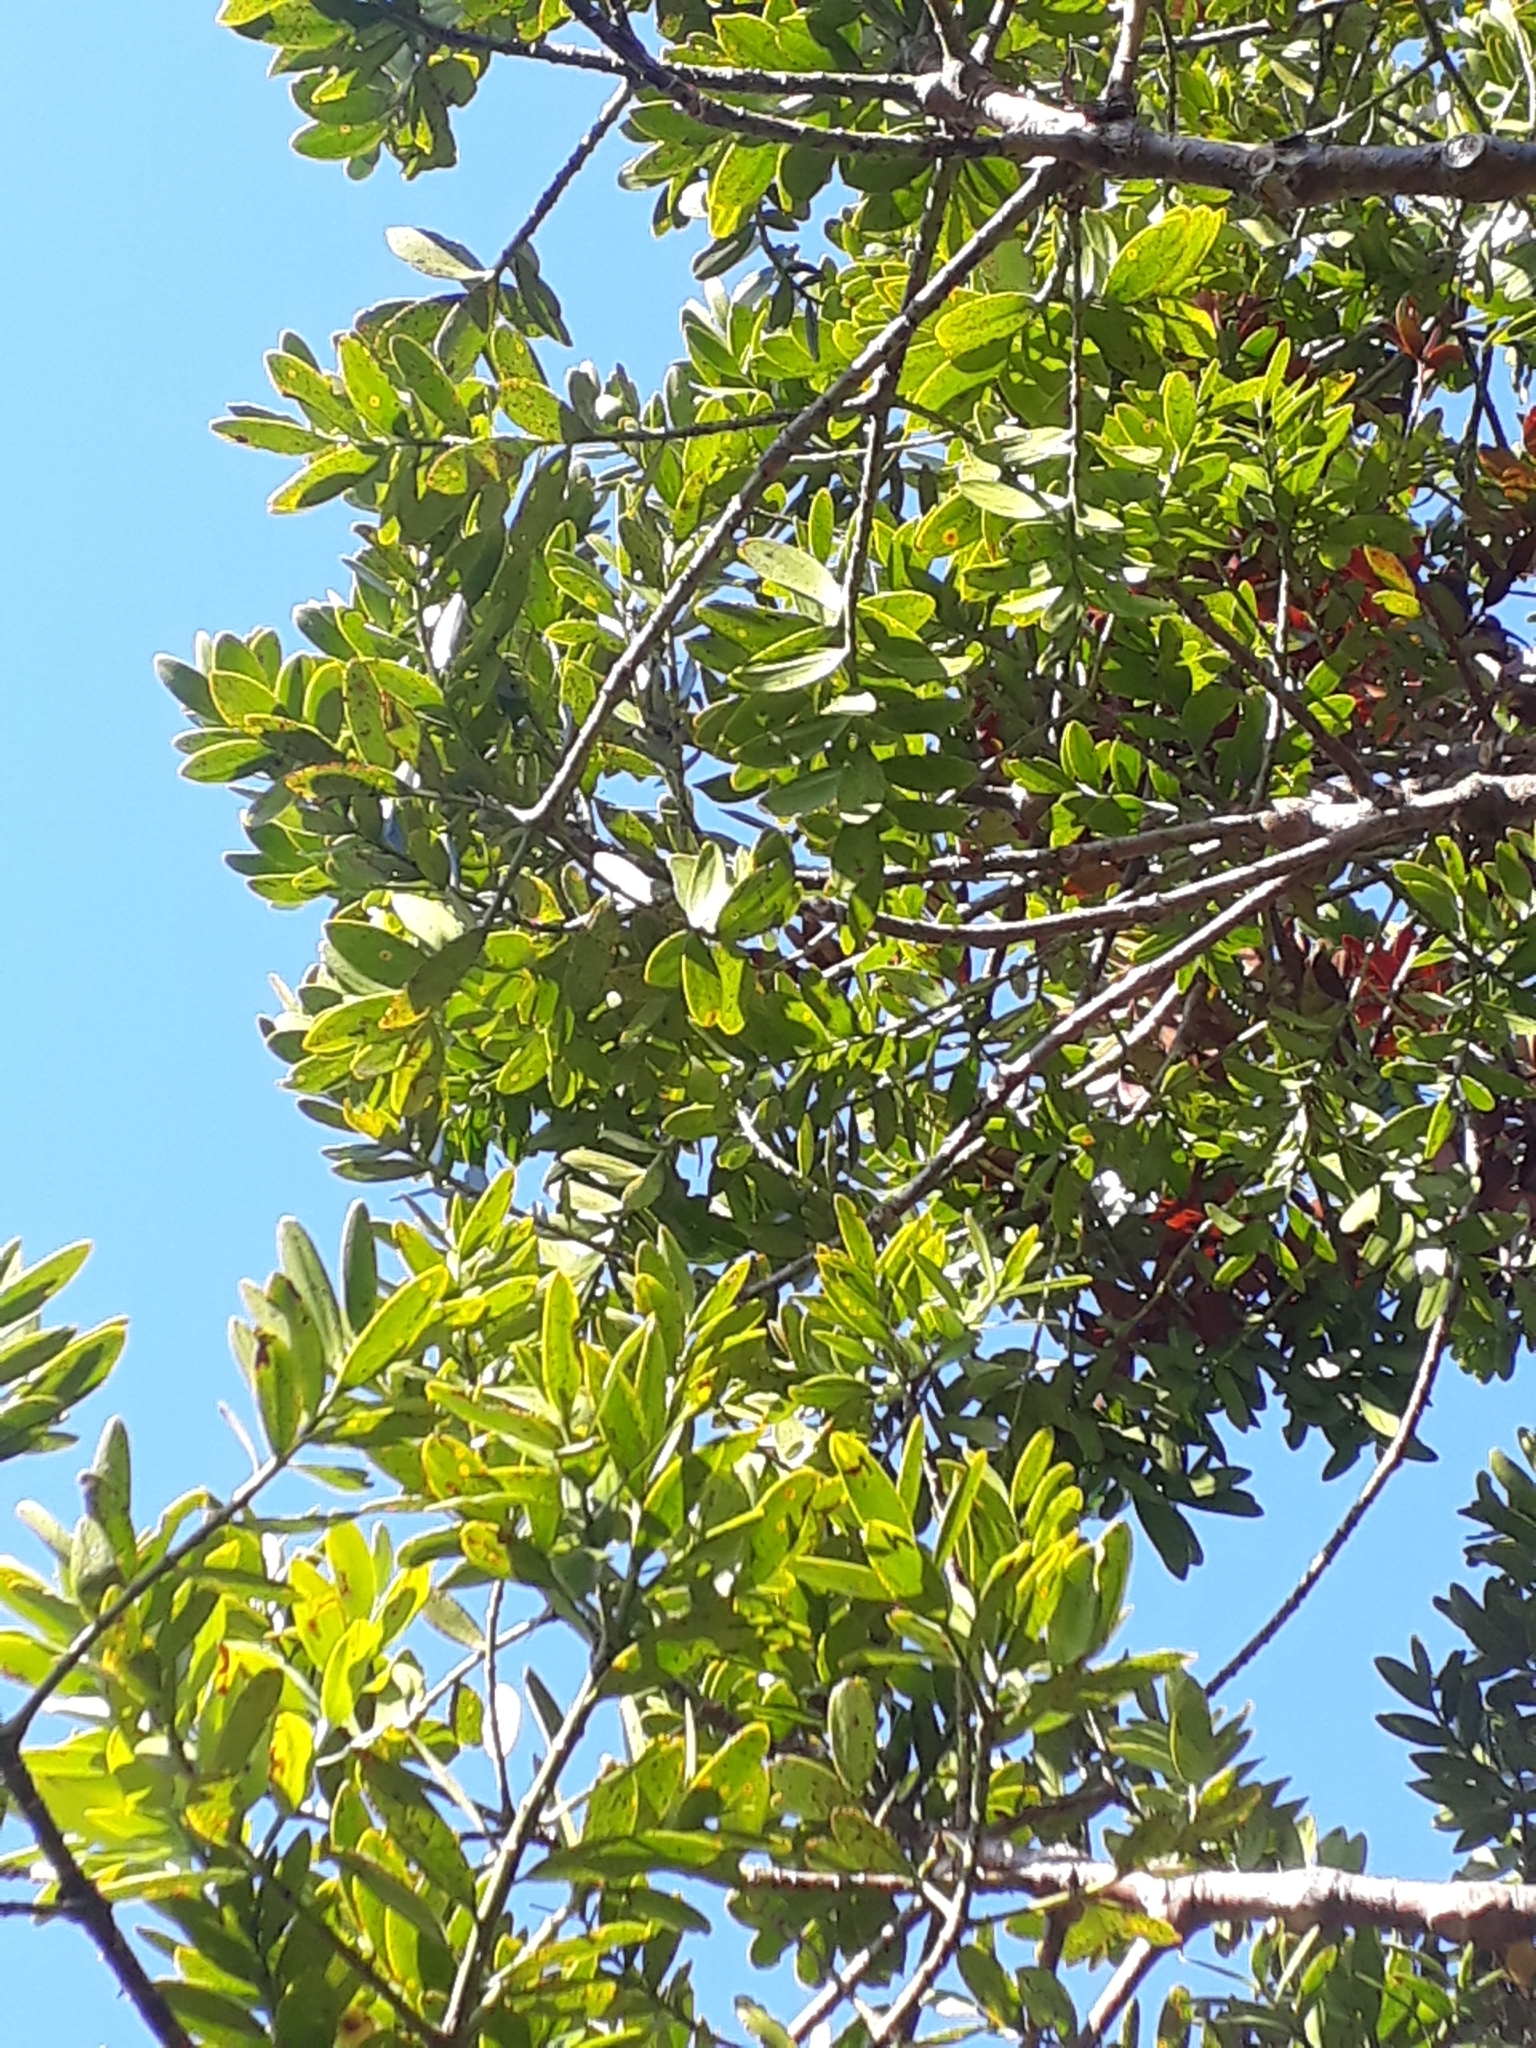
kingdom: Plantae
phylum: Tracheophyta
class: Pinopsida
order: Pinales
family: Araucariaceae
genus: Agathis
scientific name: Agathis australis
